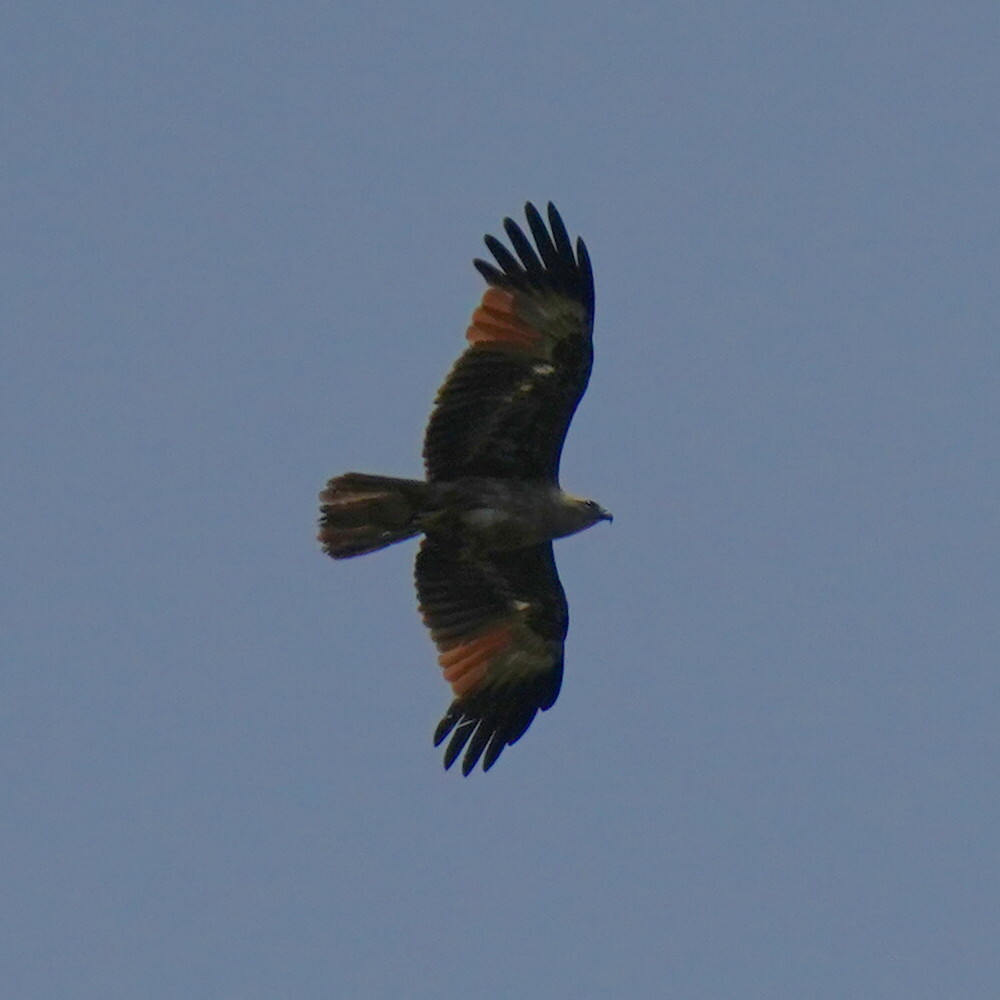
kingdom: Animalia
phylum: Chordata
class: Aves
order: Accipitriformes
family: Accipitridae
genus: Haliastur
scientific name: Haliastur indus
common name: Brahminy kite
